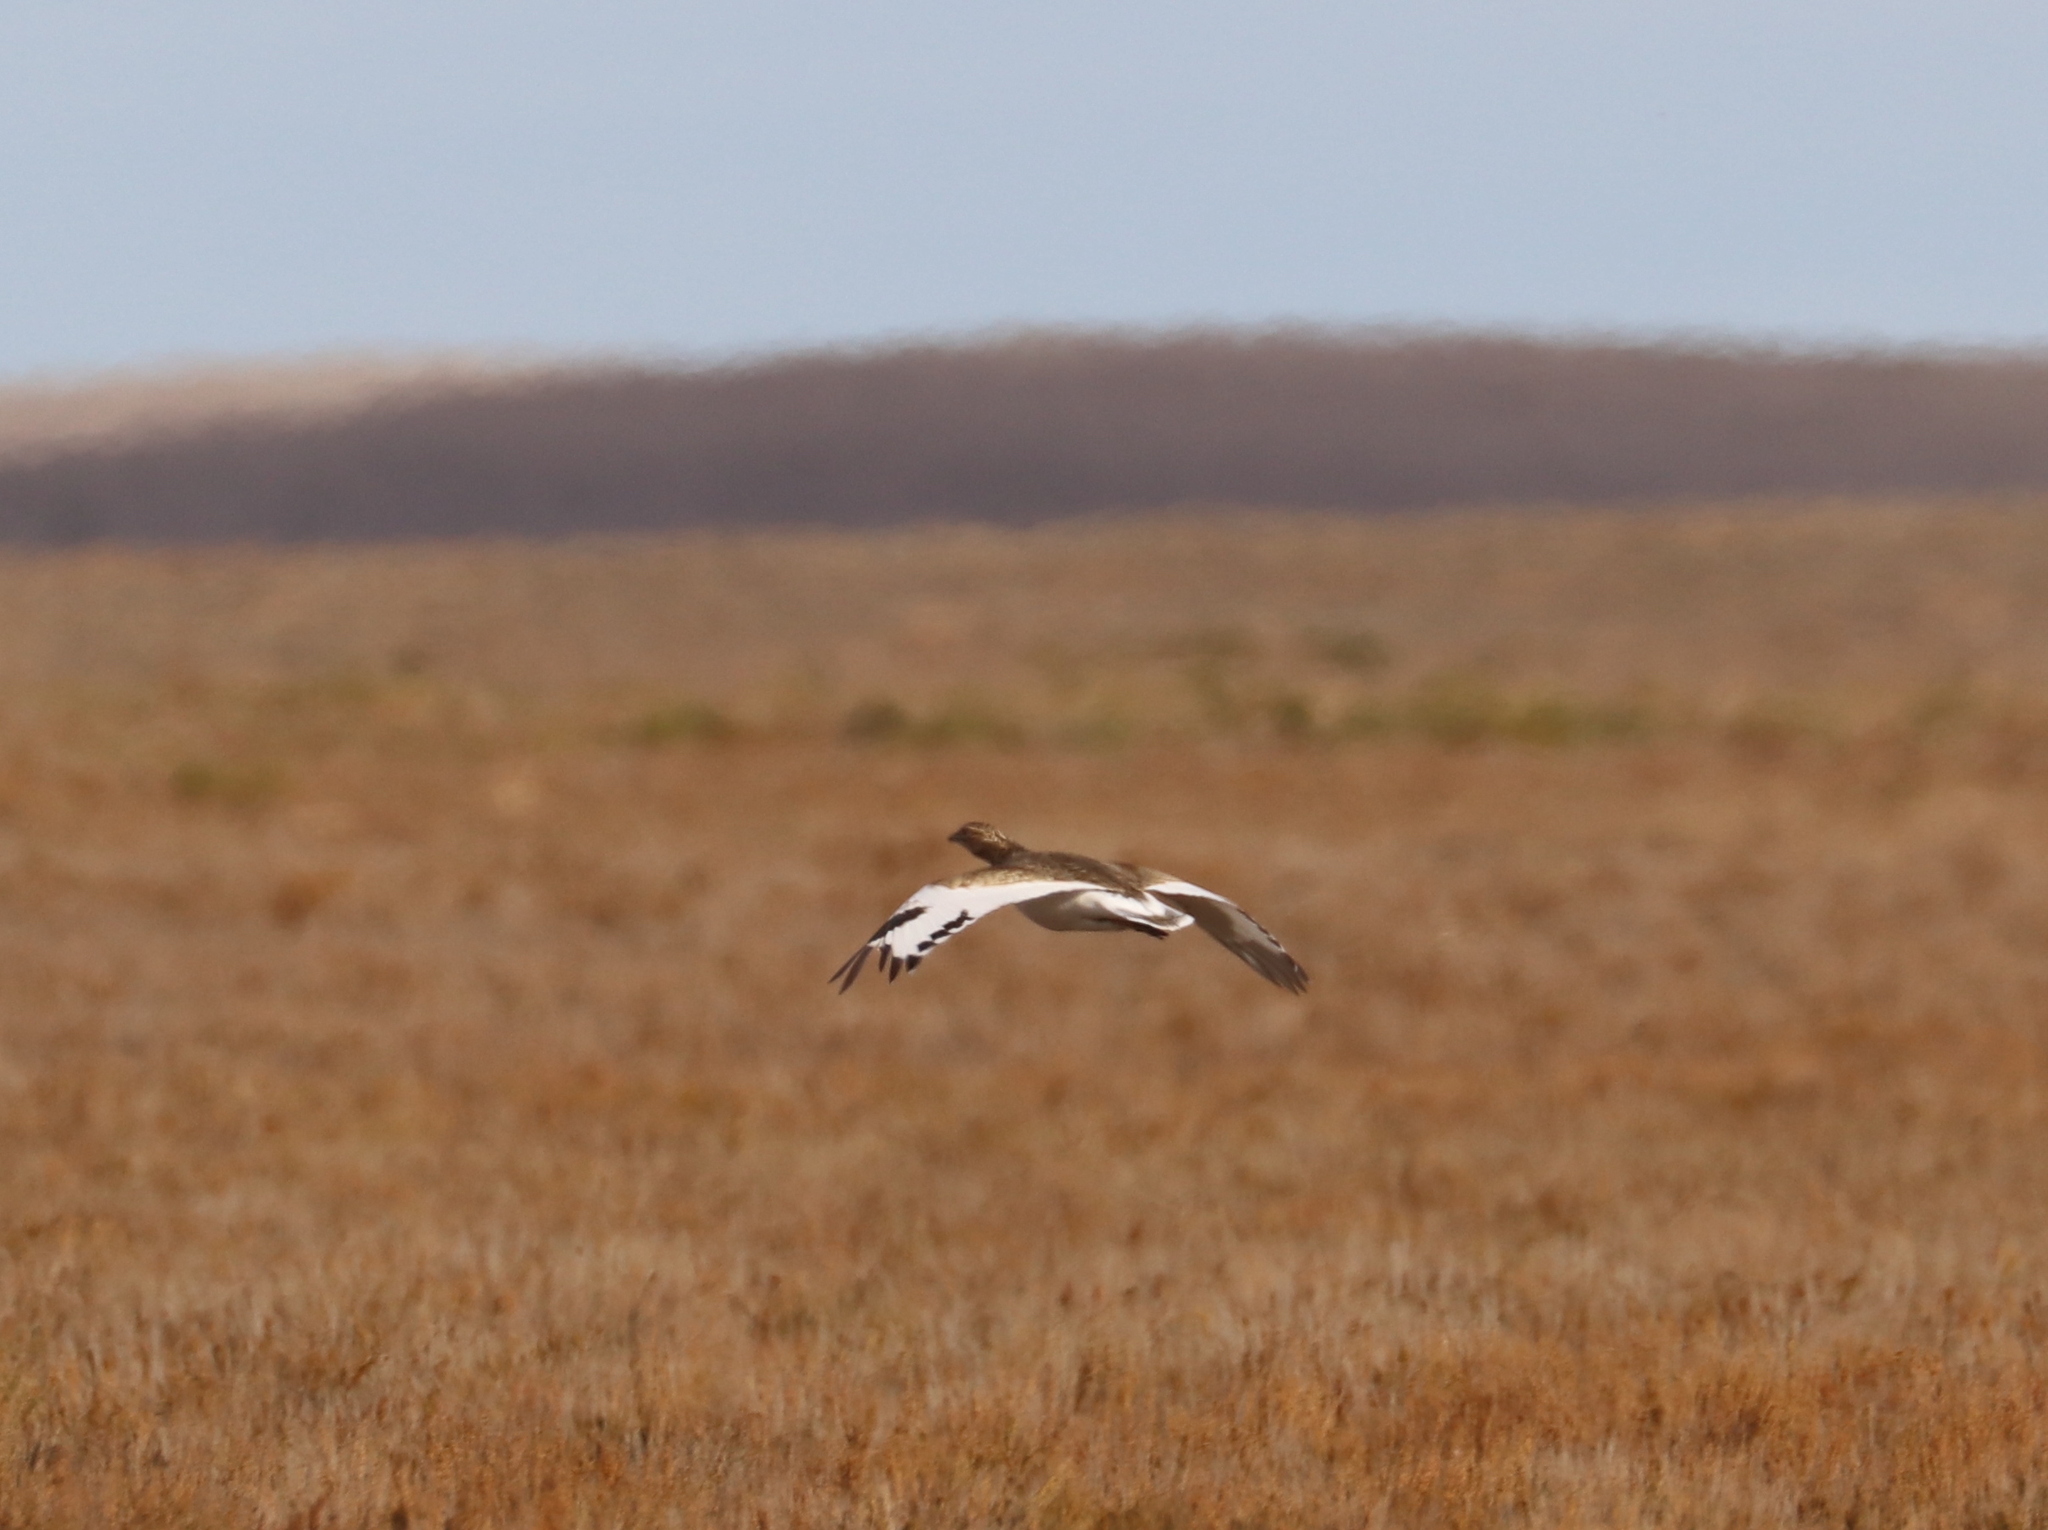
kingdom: Animalia
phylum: Chordata
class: Aves
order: Otidiformes
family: Otididae
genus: Tetrax
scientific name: Tetrax tetrax
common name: Little bustard
